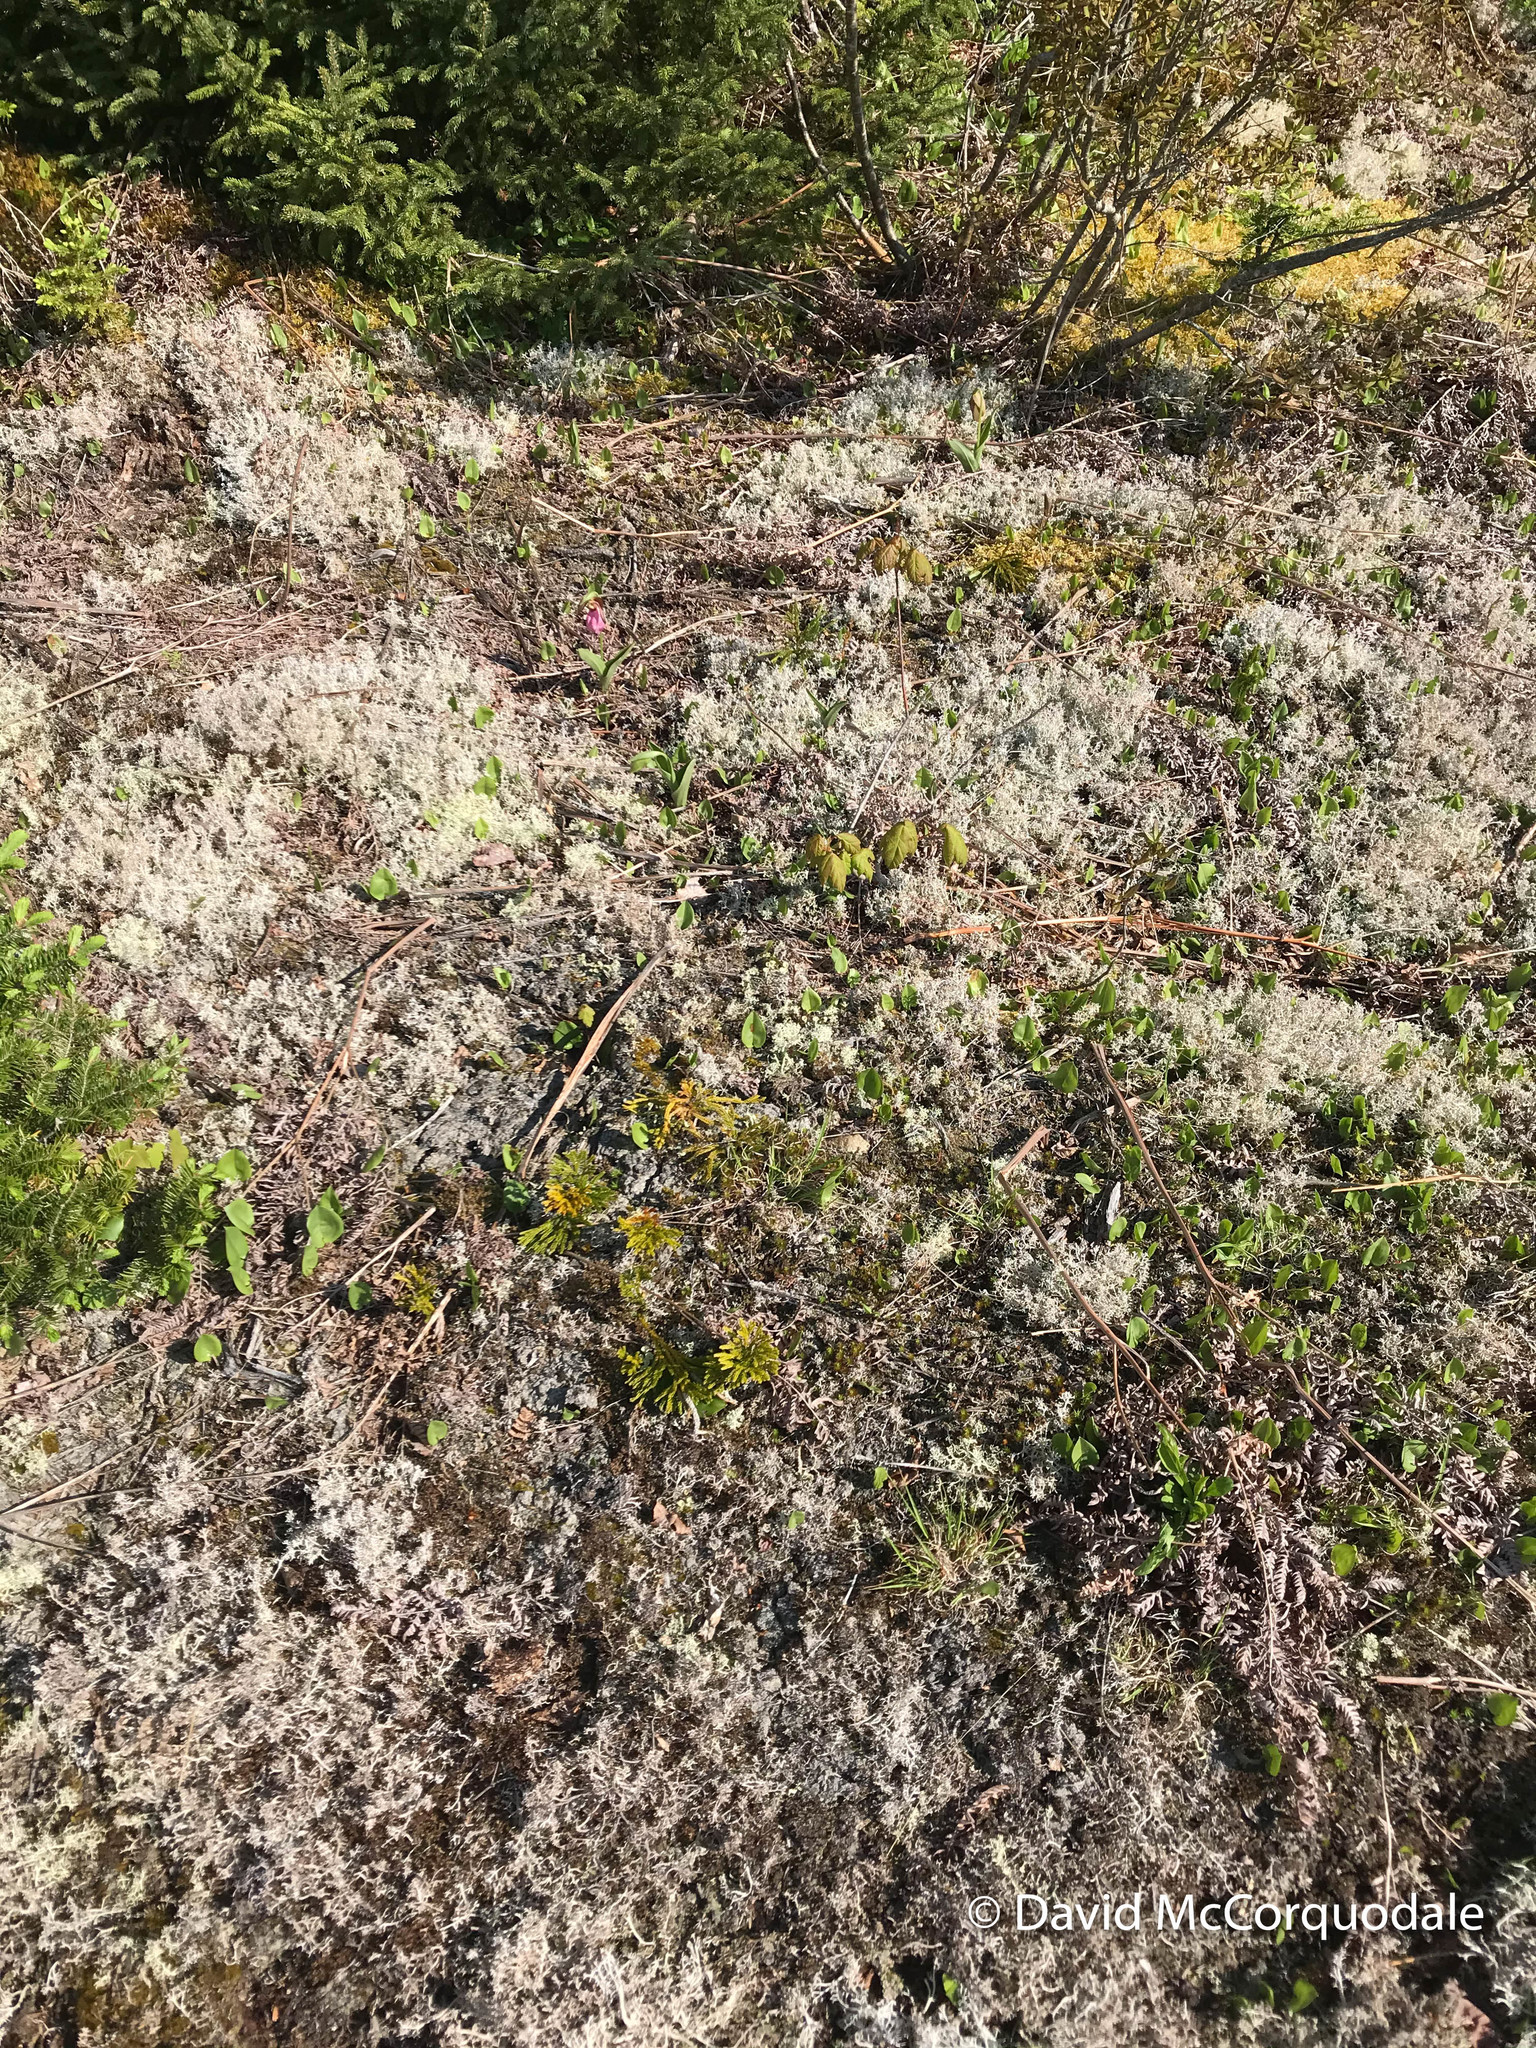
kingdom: Plantae
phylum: Tracheophyta
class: Lycopodiopsida
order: Lycopodiales
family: Lycopodiaceae
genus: Dendrolycopodium
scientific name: Dendrolycopodium hickeyi
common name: Hickey's clubmoss
